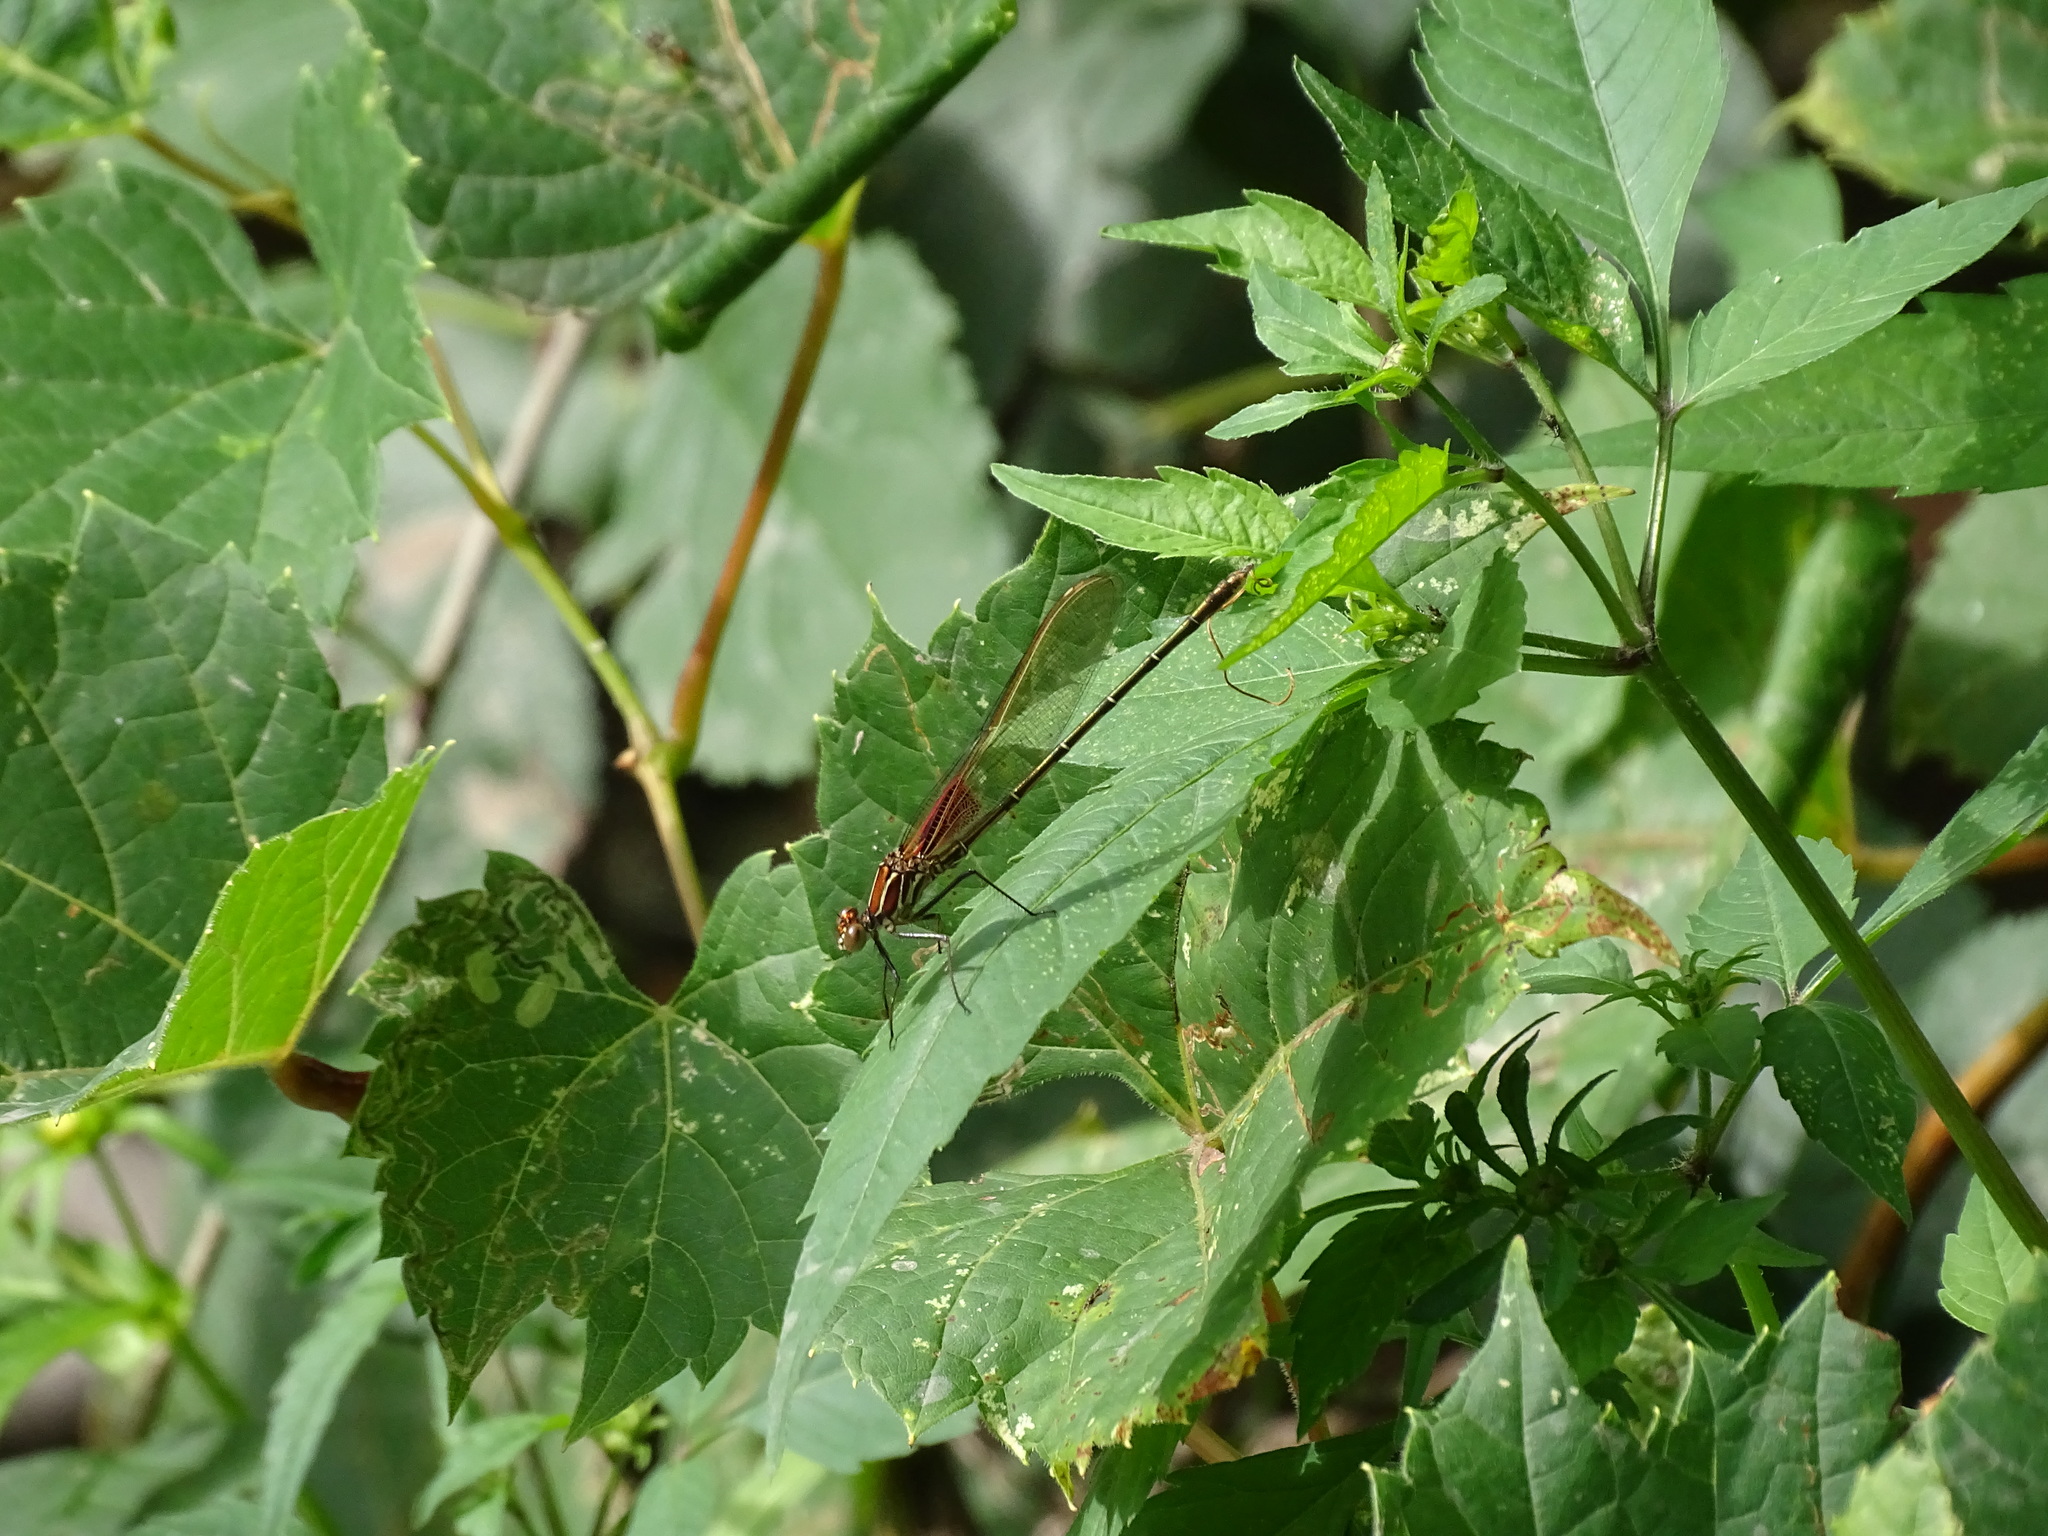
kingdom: Animalia
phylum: Arthropoda
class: Insecta
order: Odonata
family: Calopterygidae
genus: Hetaerina
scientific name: Hetaerina americana
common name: American rubyspot
